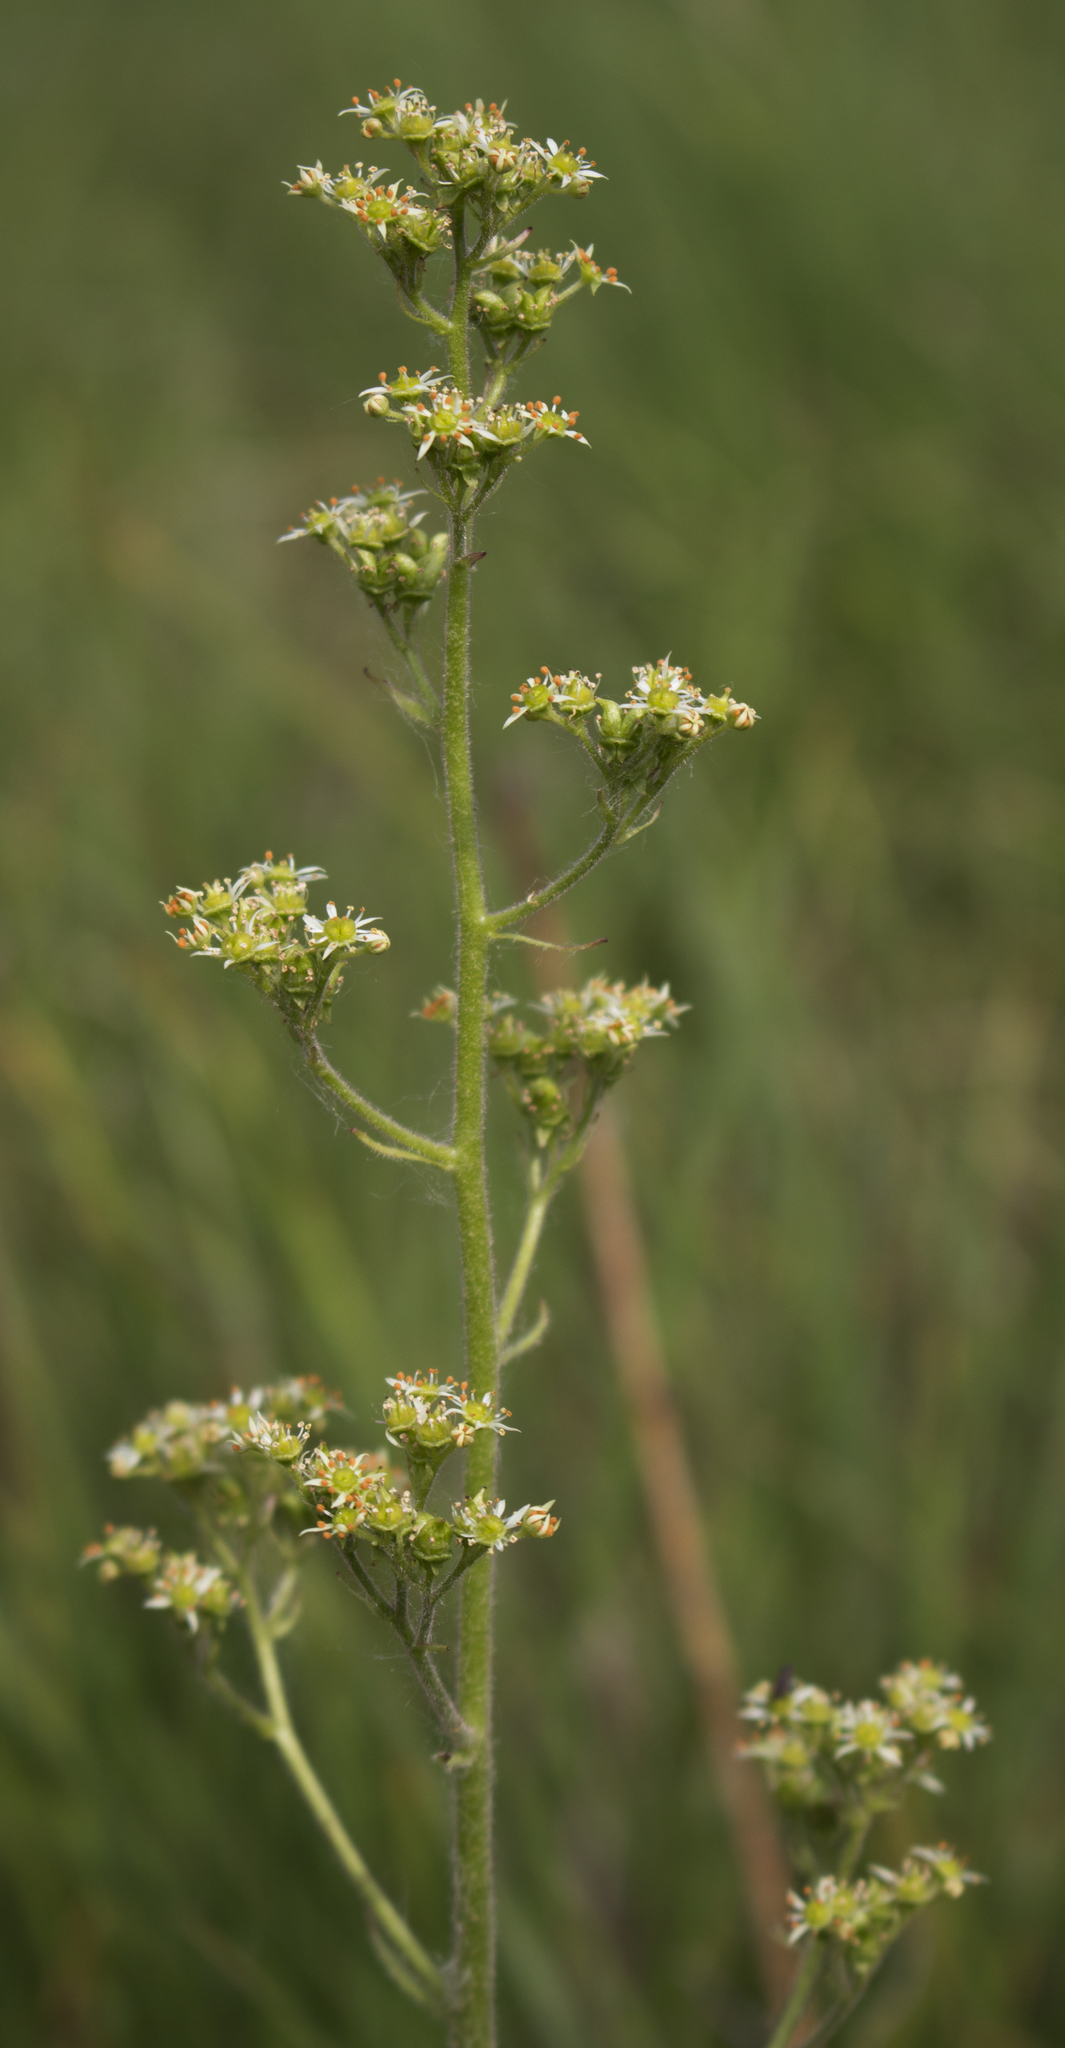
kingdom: Plantae
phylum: Tracheophyta
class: Magnoliopsida
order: Saxifragales
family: Saxifragaceae
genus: Micranthes
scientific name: Micranthes pensylvanica
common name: Marsh saxifrage
